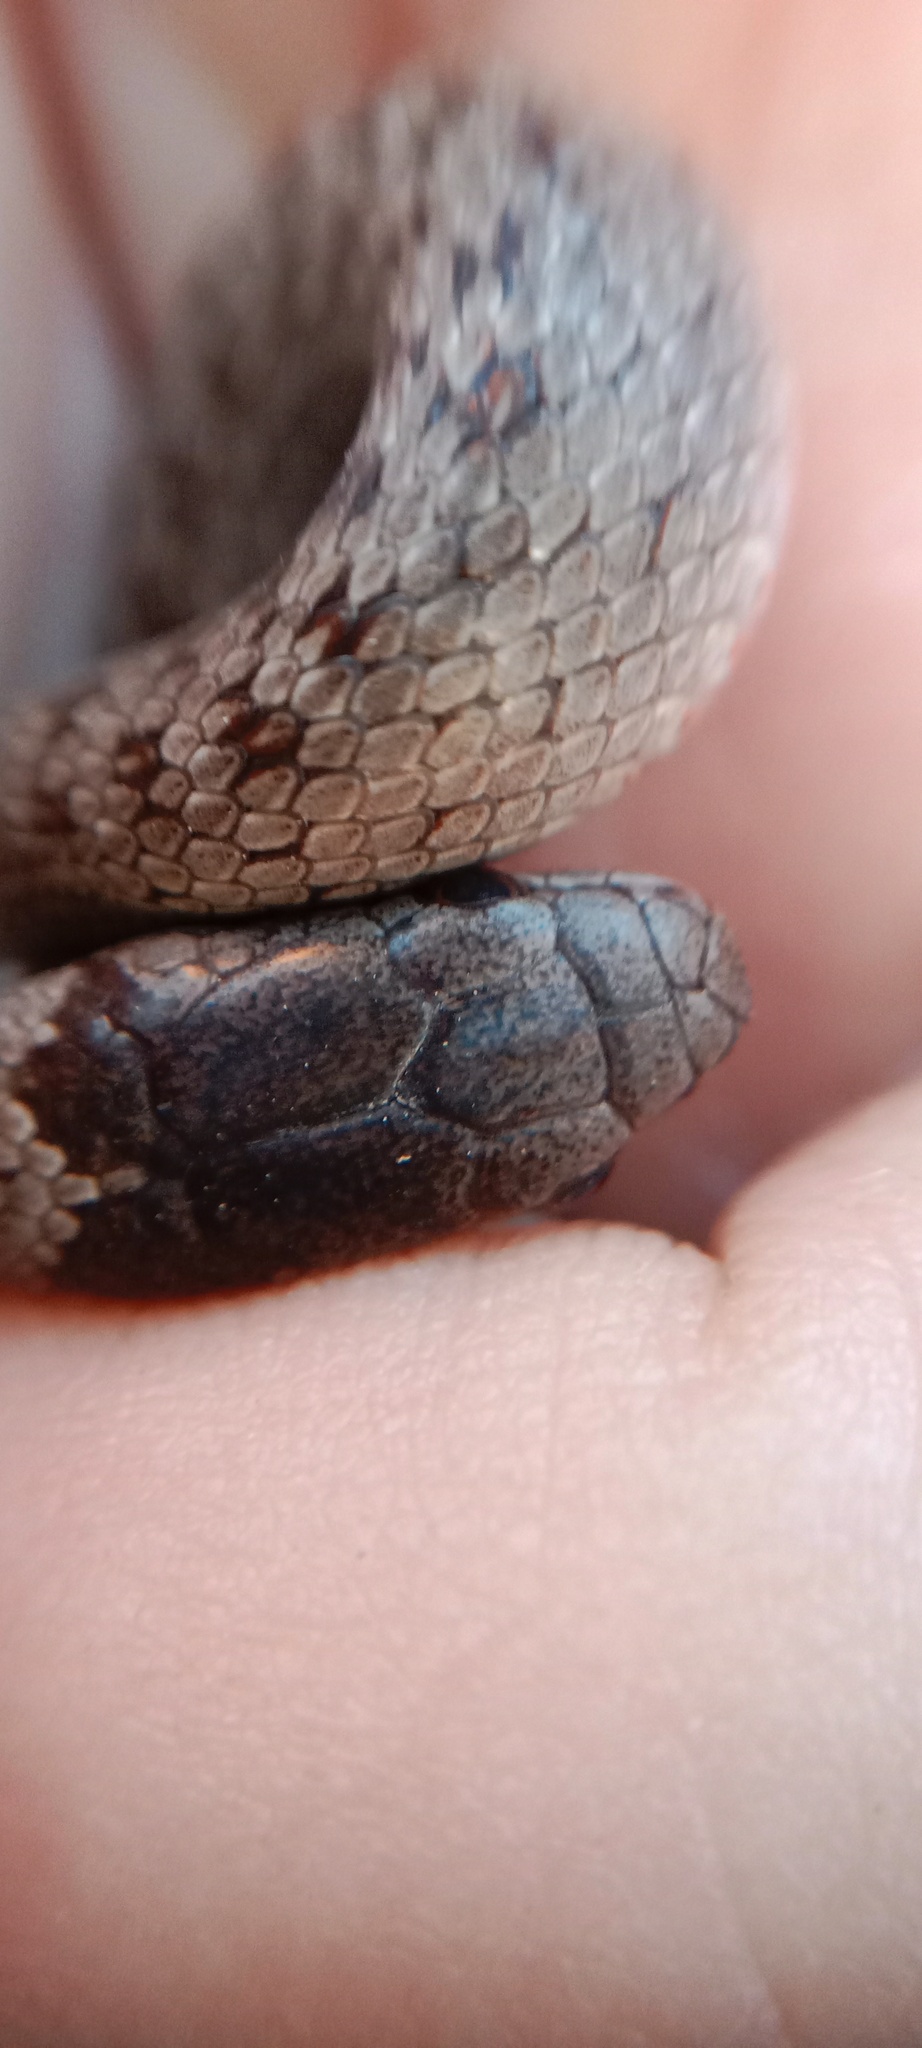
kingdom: Animalia
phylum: Chordata
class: Squamata
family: Colubridae
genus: Coronella
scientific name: Coronella austriaca
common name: Smooth snake
